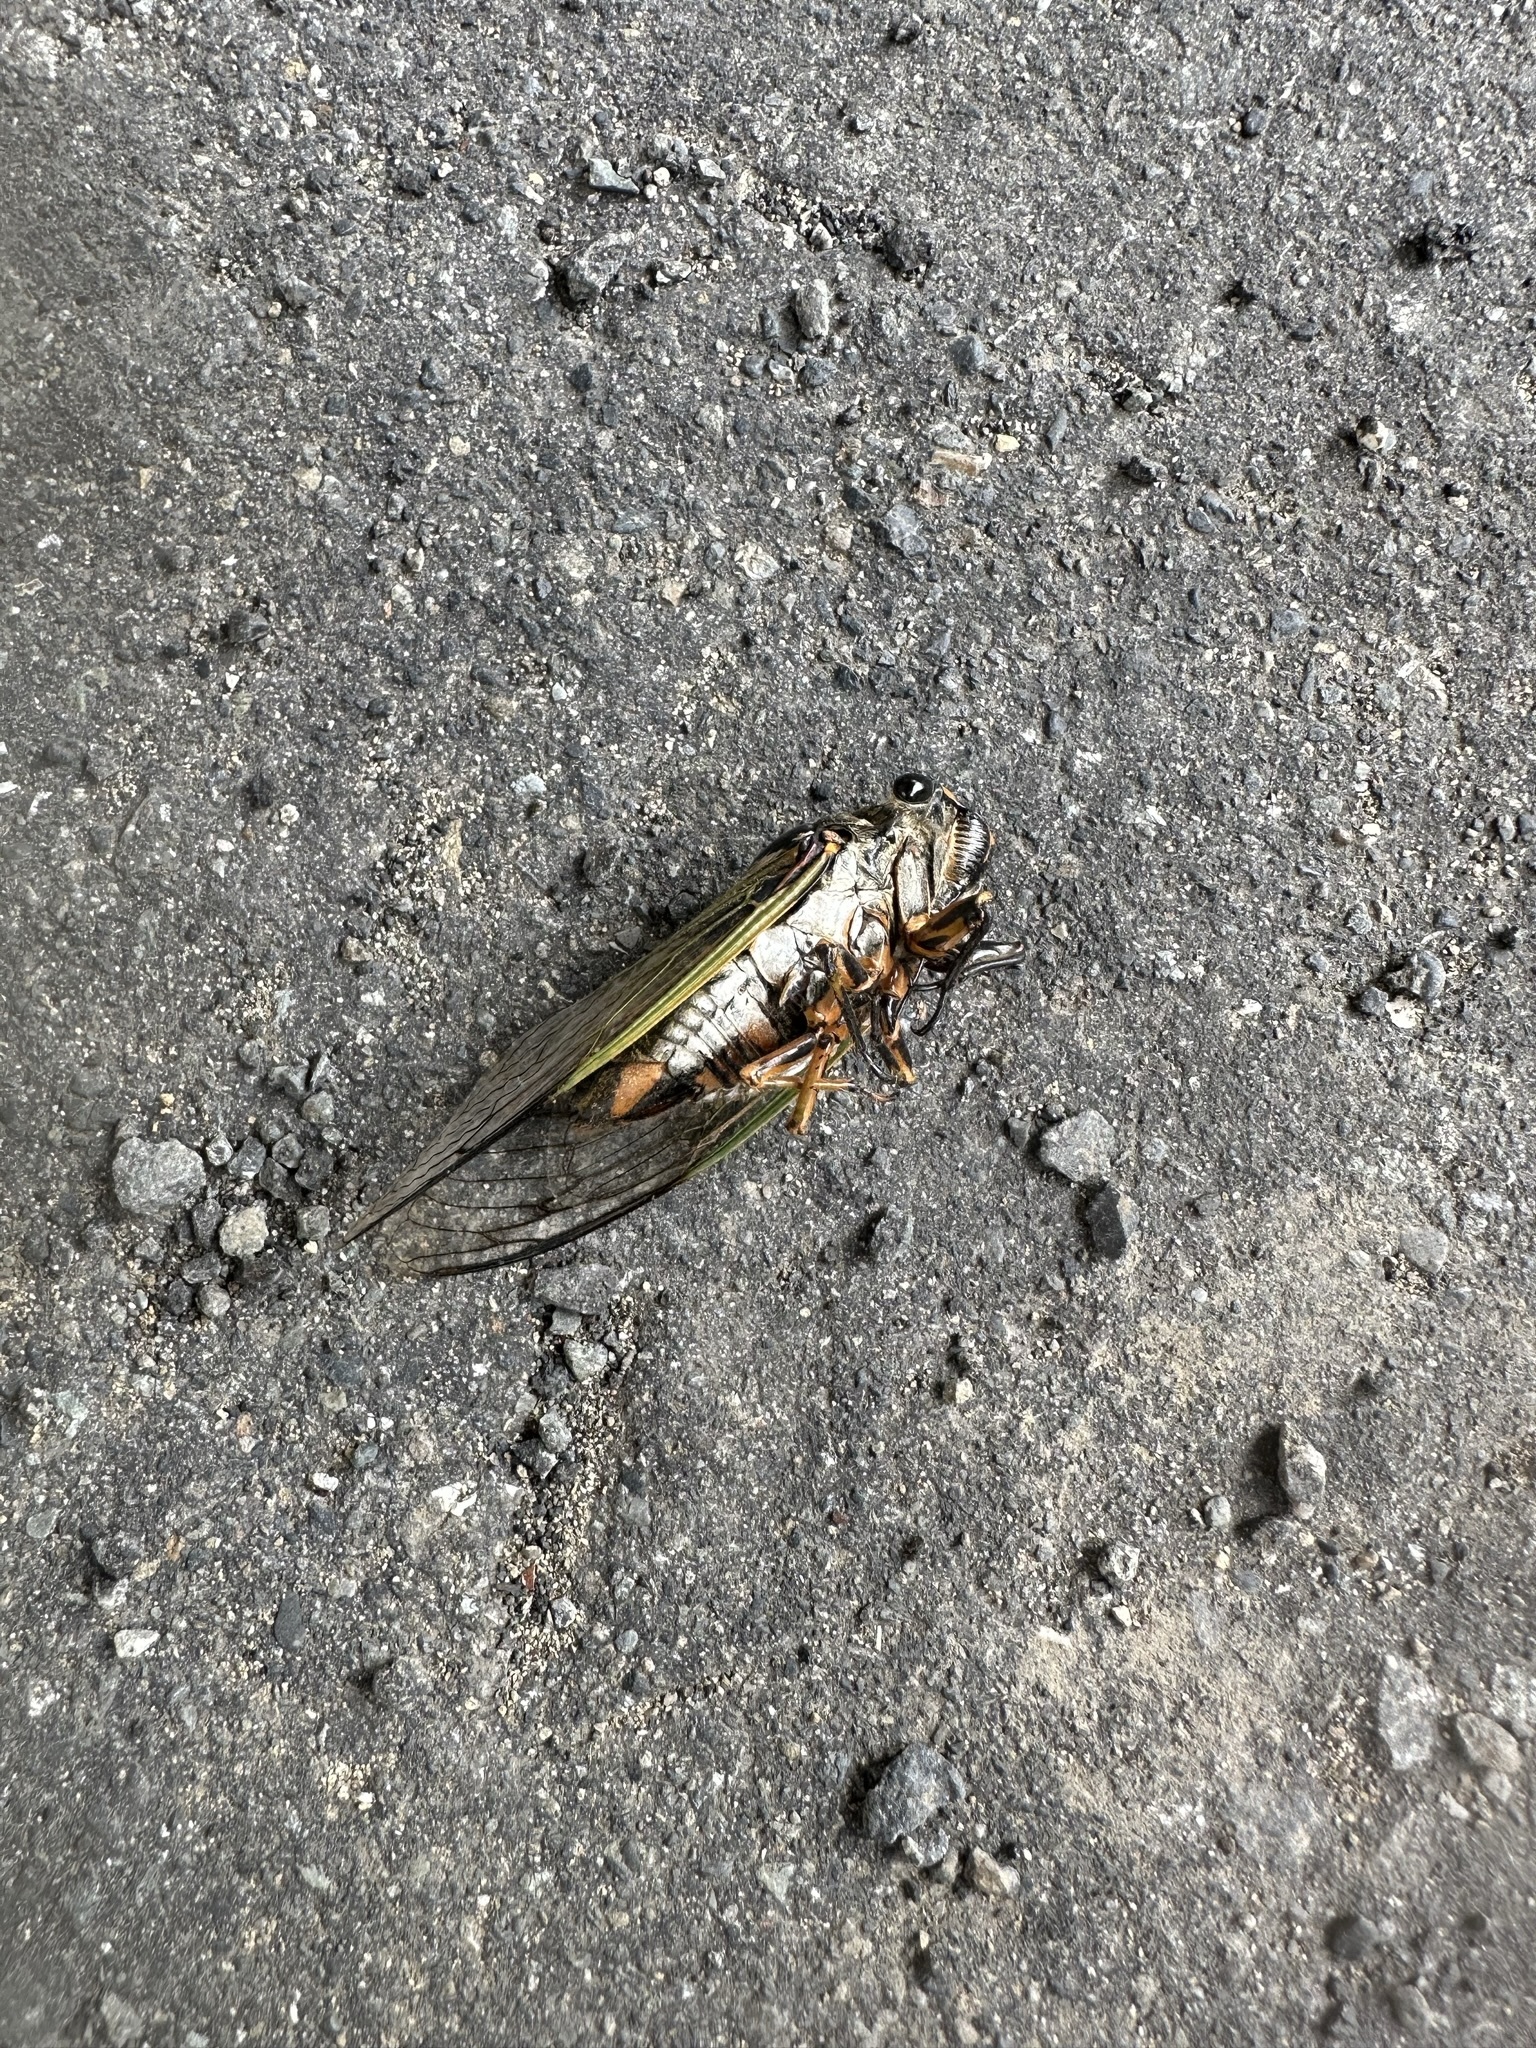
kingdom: Animalia
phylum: Arthropoda
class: Insecta
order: Hemiptera
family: Cicadidae
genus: Cryptotympana
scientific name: Cryptotympana facialis
